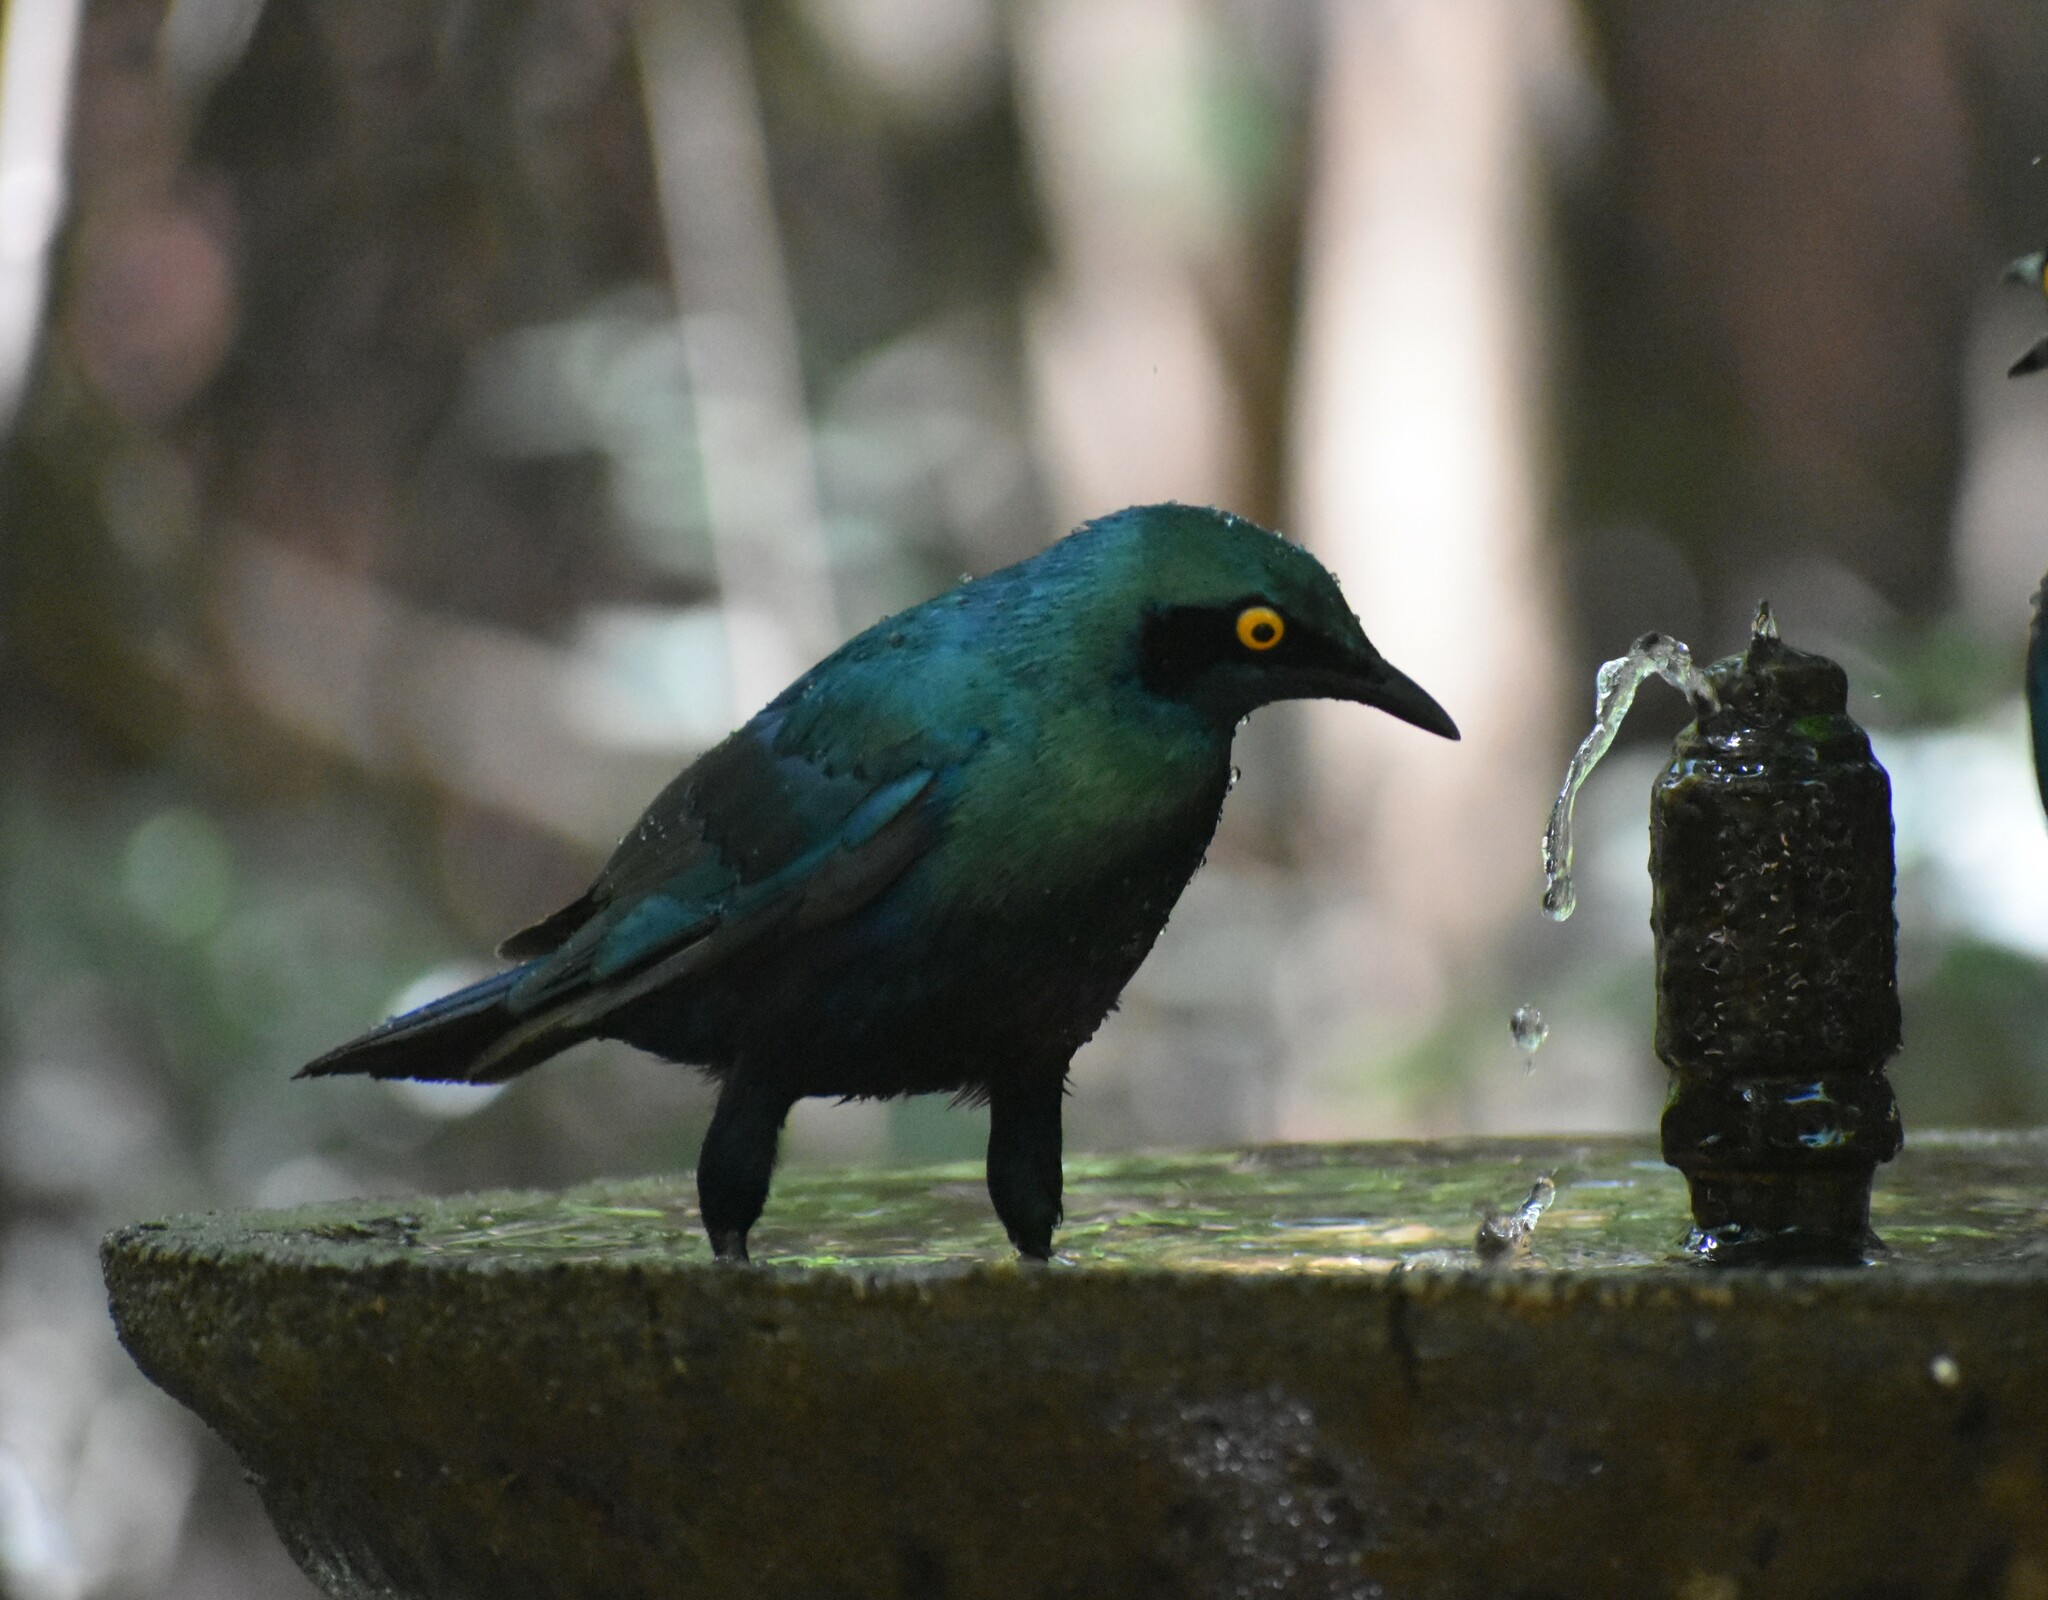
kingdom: Animalia
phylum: Chordata
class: Aves
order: Passeriformes
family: Sturnidae
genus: Lamprotornis
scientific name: Lamprotornis chalybaeus
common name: Greater blue-eared starling
